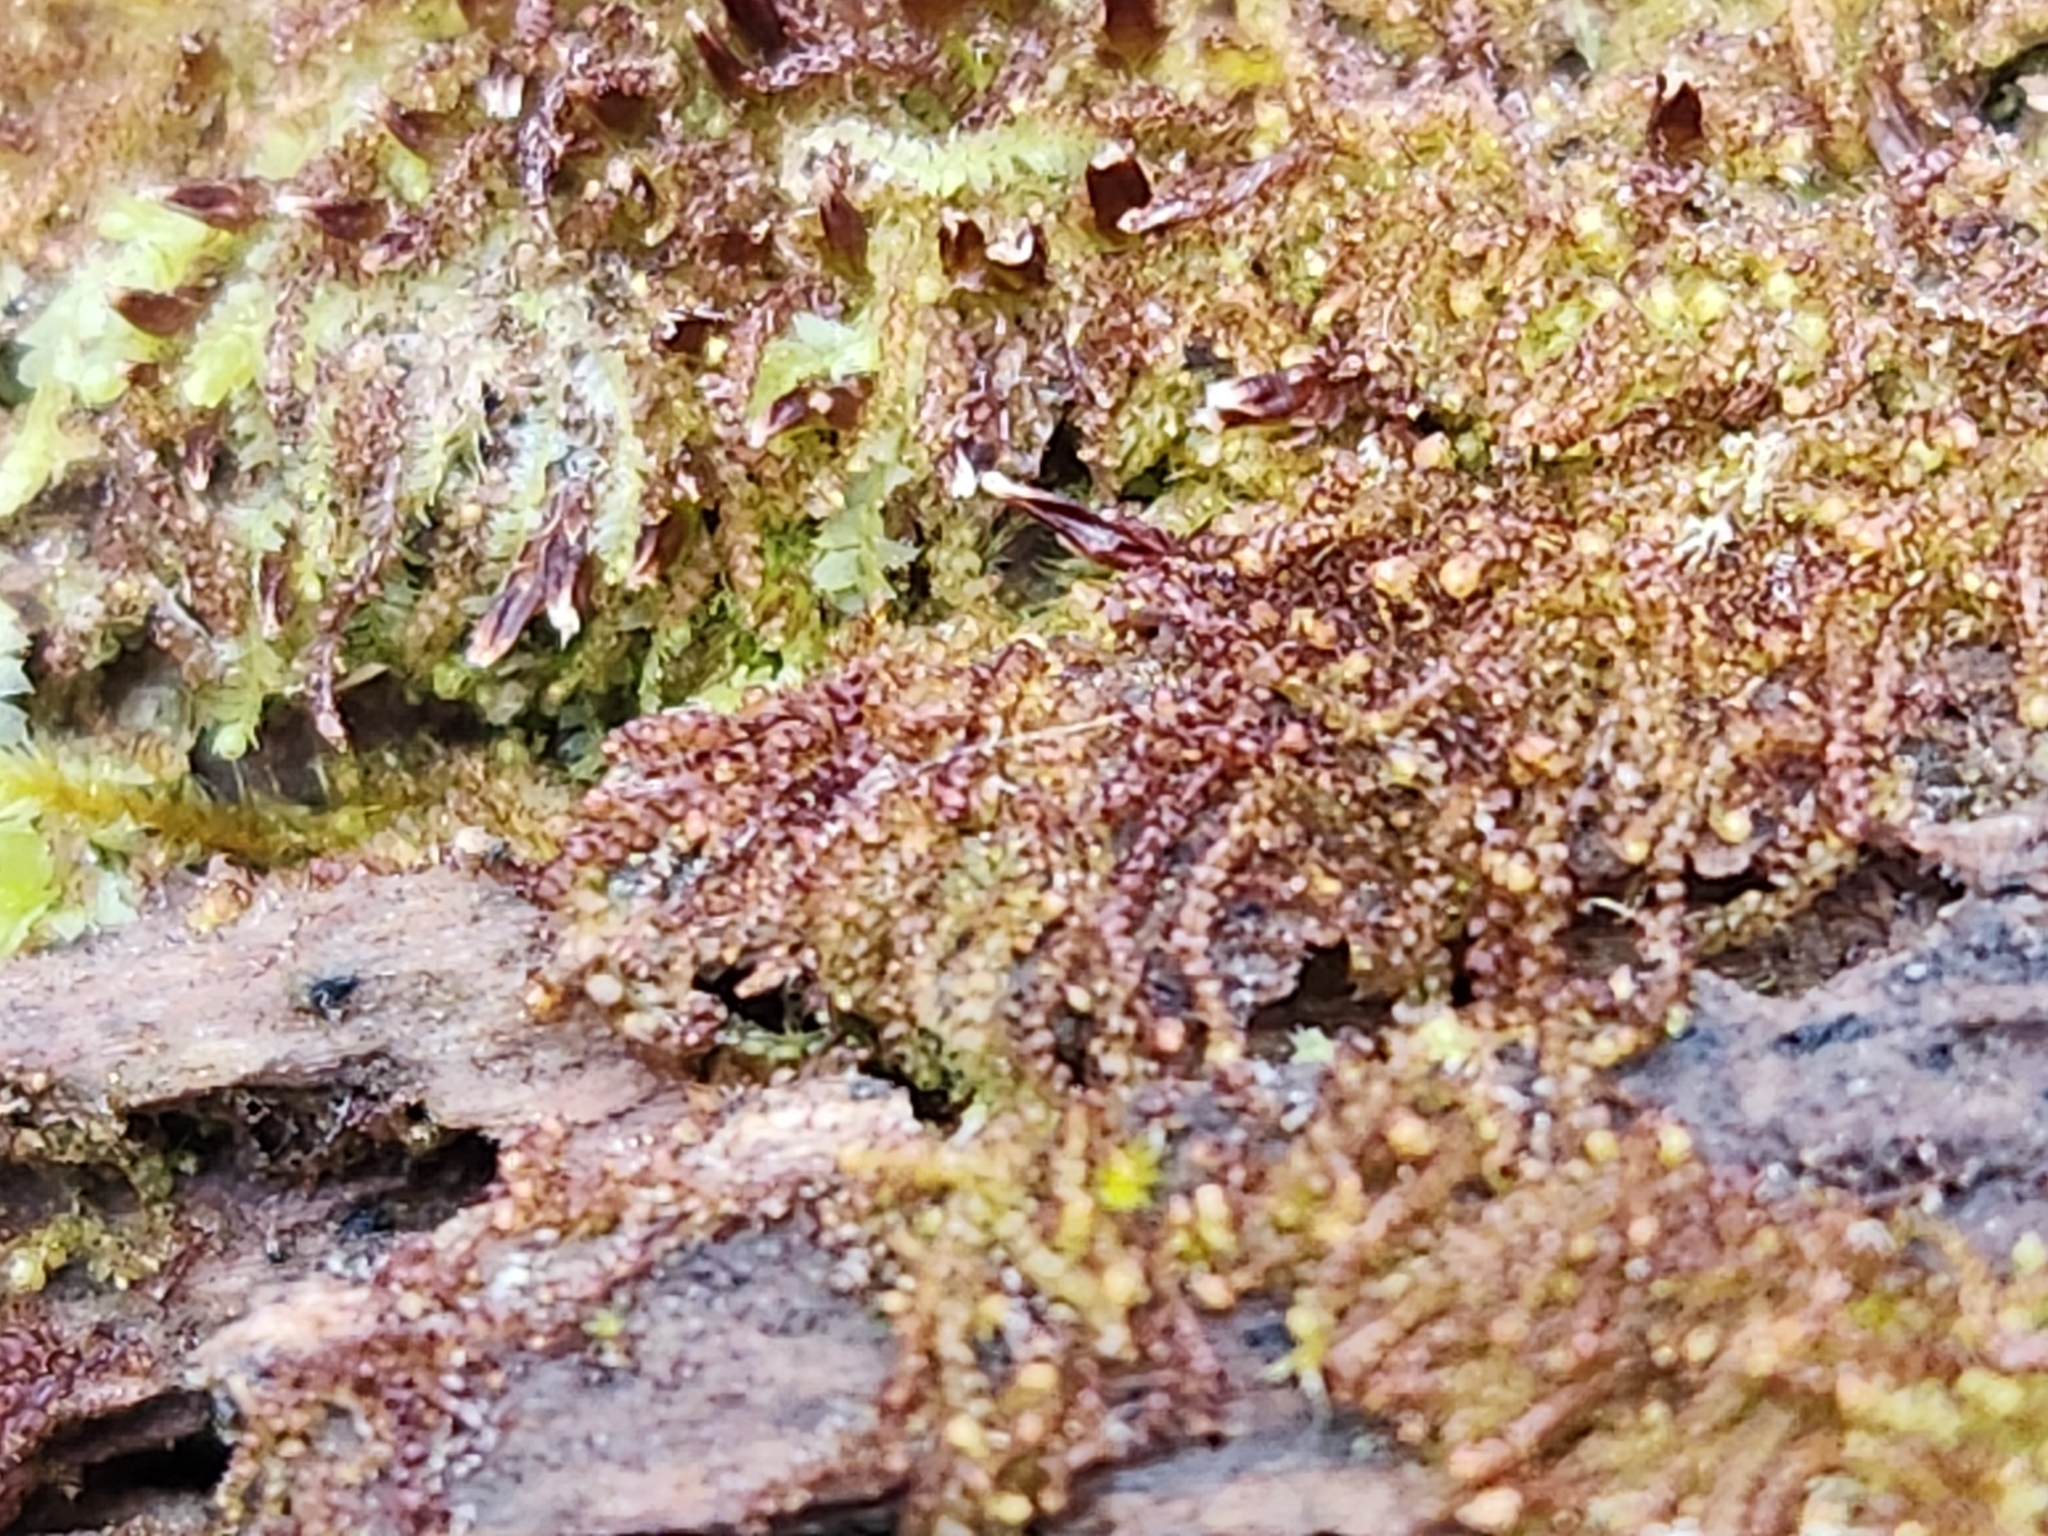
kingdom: Plantae
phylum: Marchantiophyta
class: Jungermanniopsida
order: Jungermanniales
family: Cephaloziaceae
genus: Nowellia
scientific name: Nowellia curvifolia
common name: Wood rustwort
